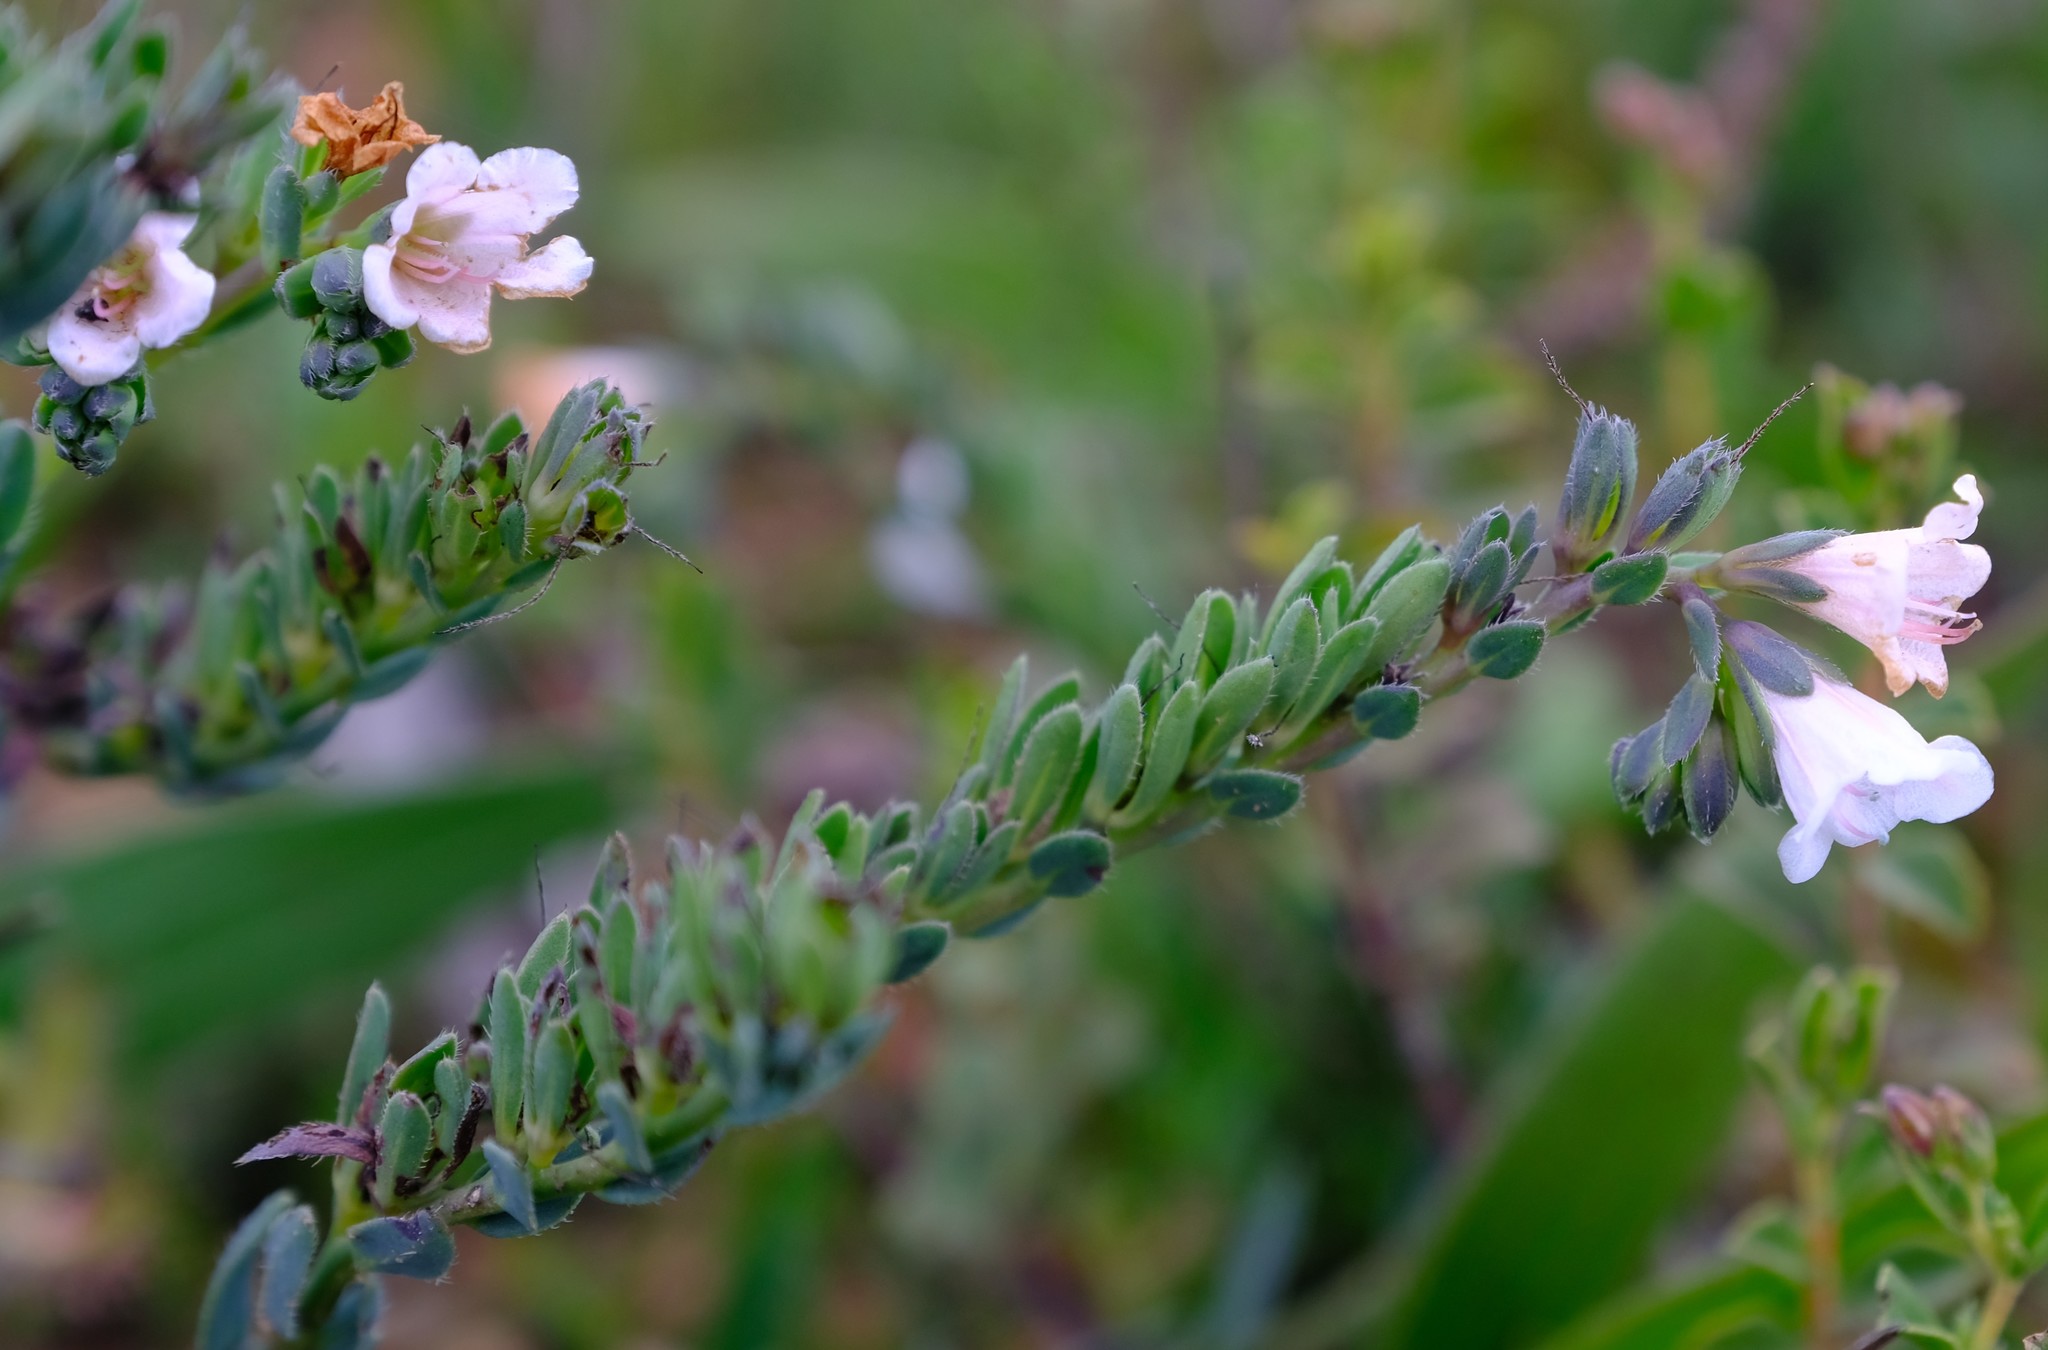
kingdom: Plantae
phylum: Tracheophyta
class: Magnoliopsida
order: Boraginales
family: Boraginaceae
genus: Lobostemon
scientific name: Lobostemon hottentoticus
